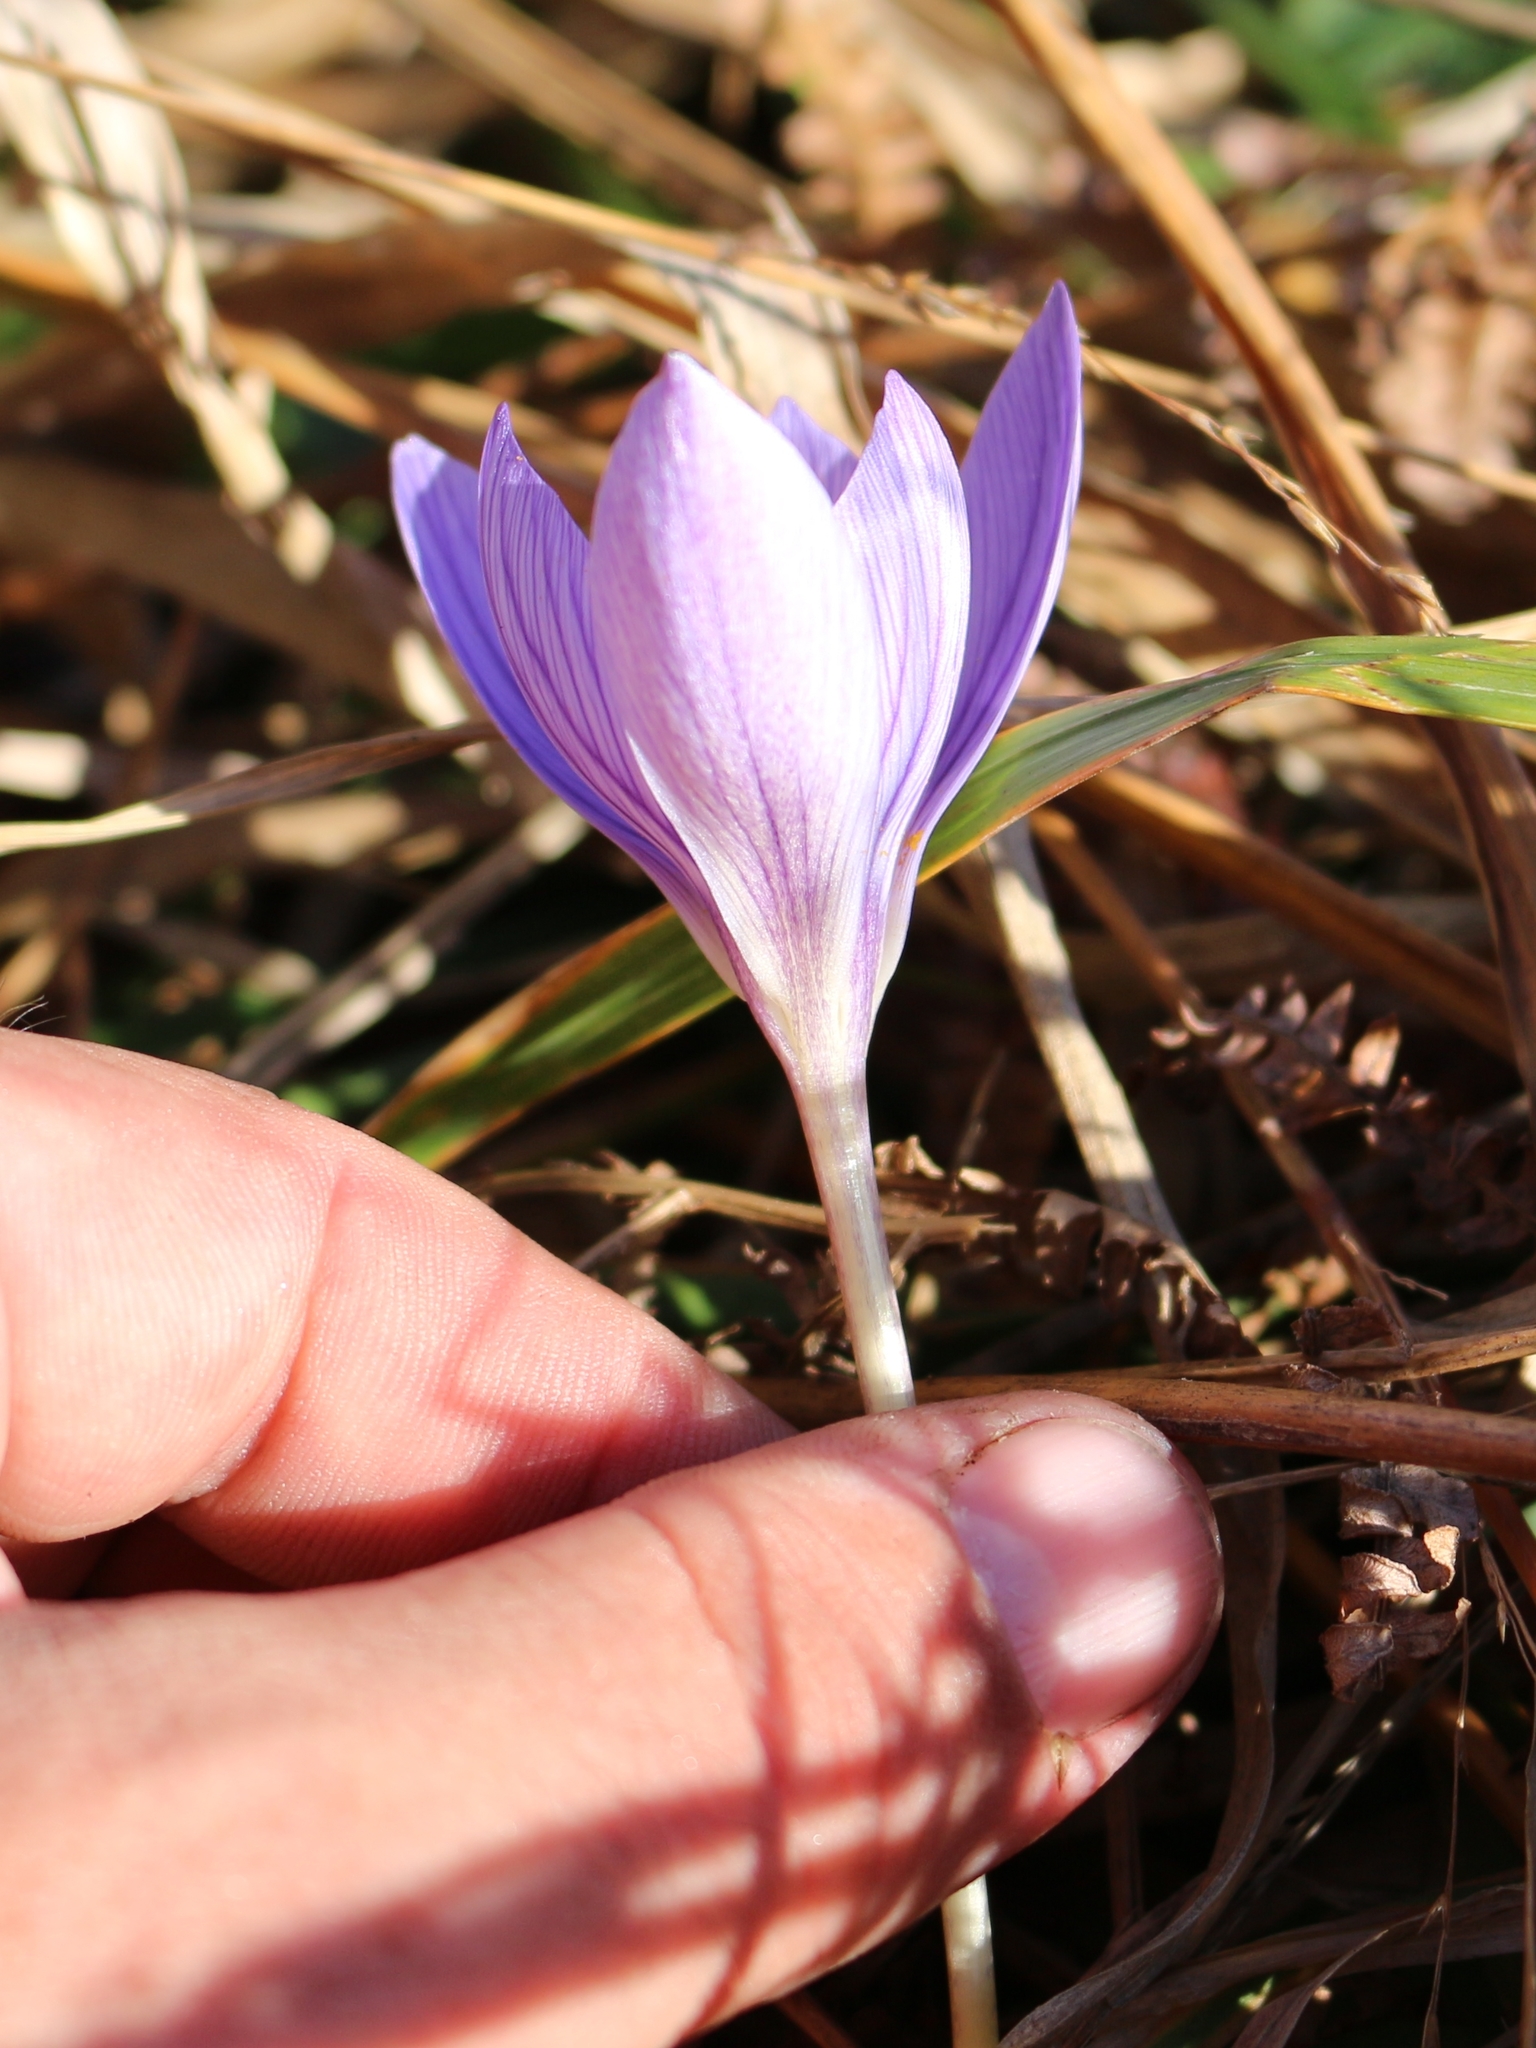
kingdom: Plantae
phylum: Tracheophyta
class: Liliopsida
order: Asparagales
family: Iridaceae
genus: Crocus
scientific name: Crocus speciosus
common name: Bieberstein's crocus
